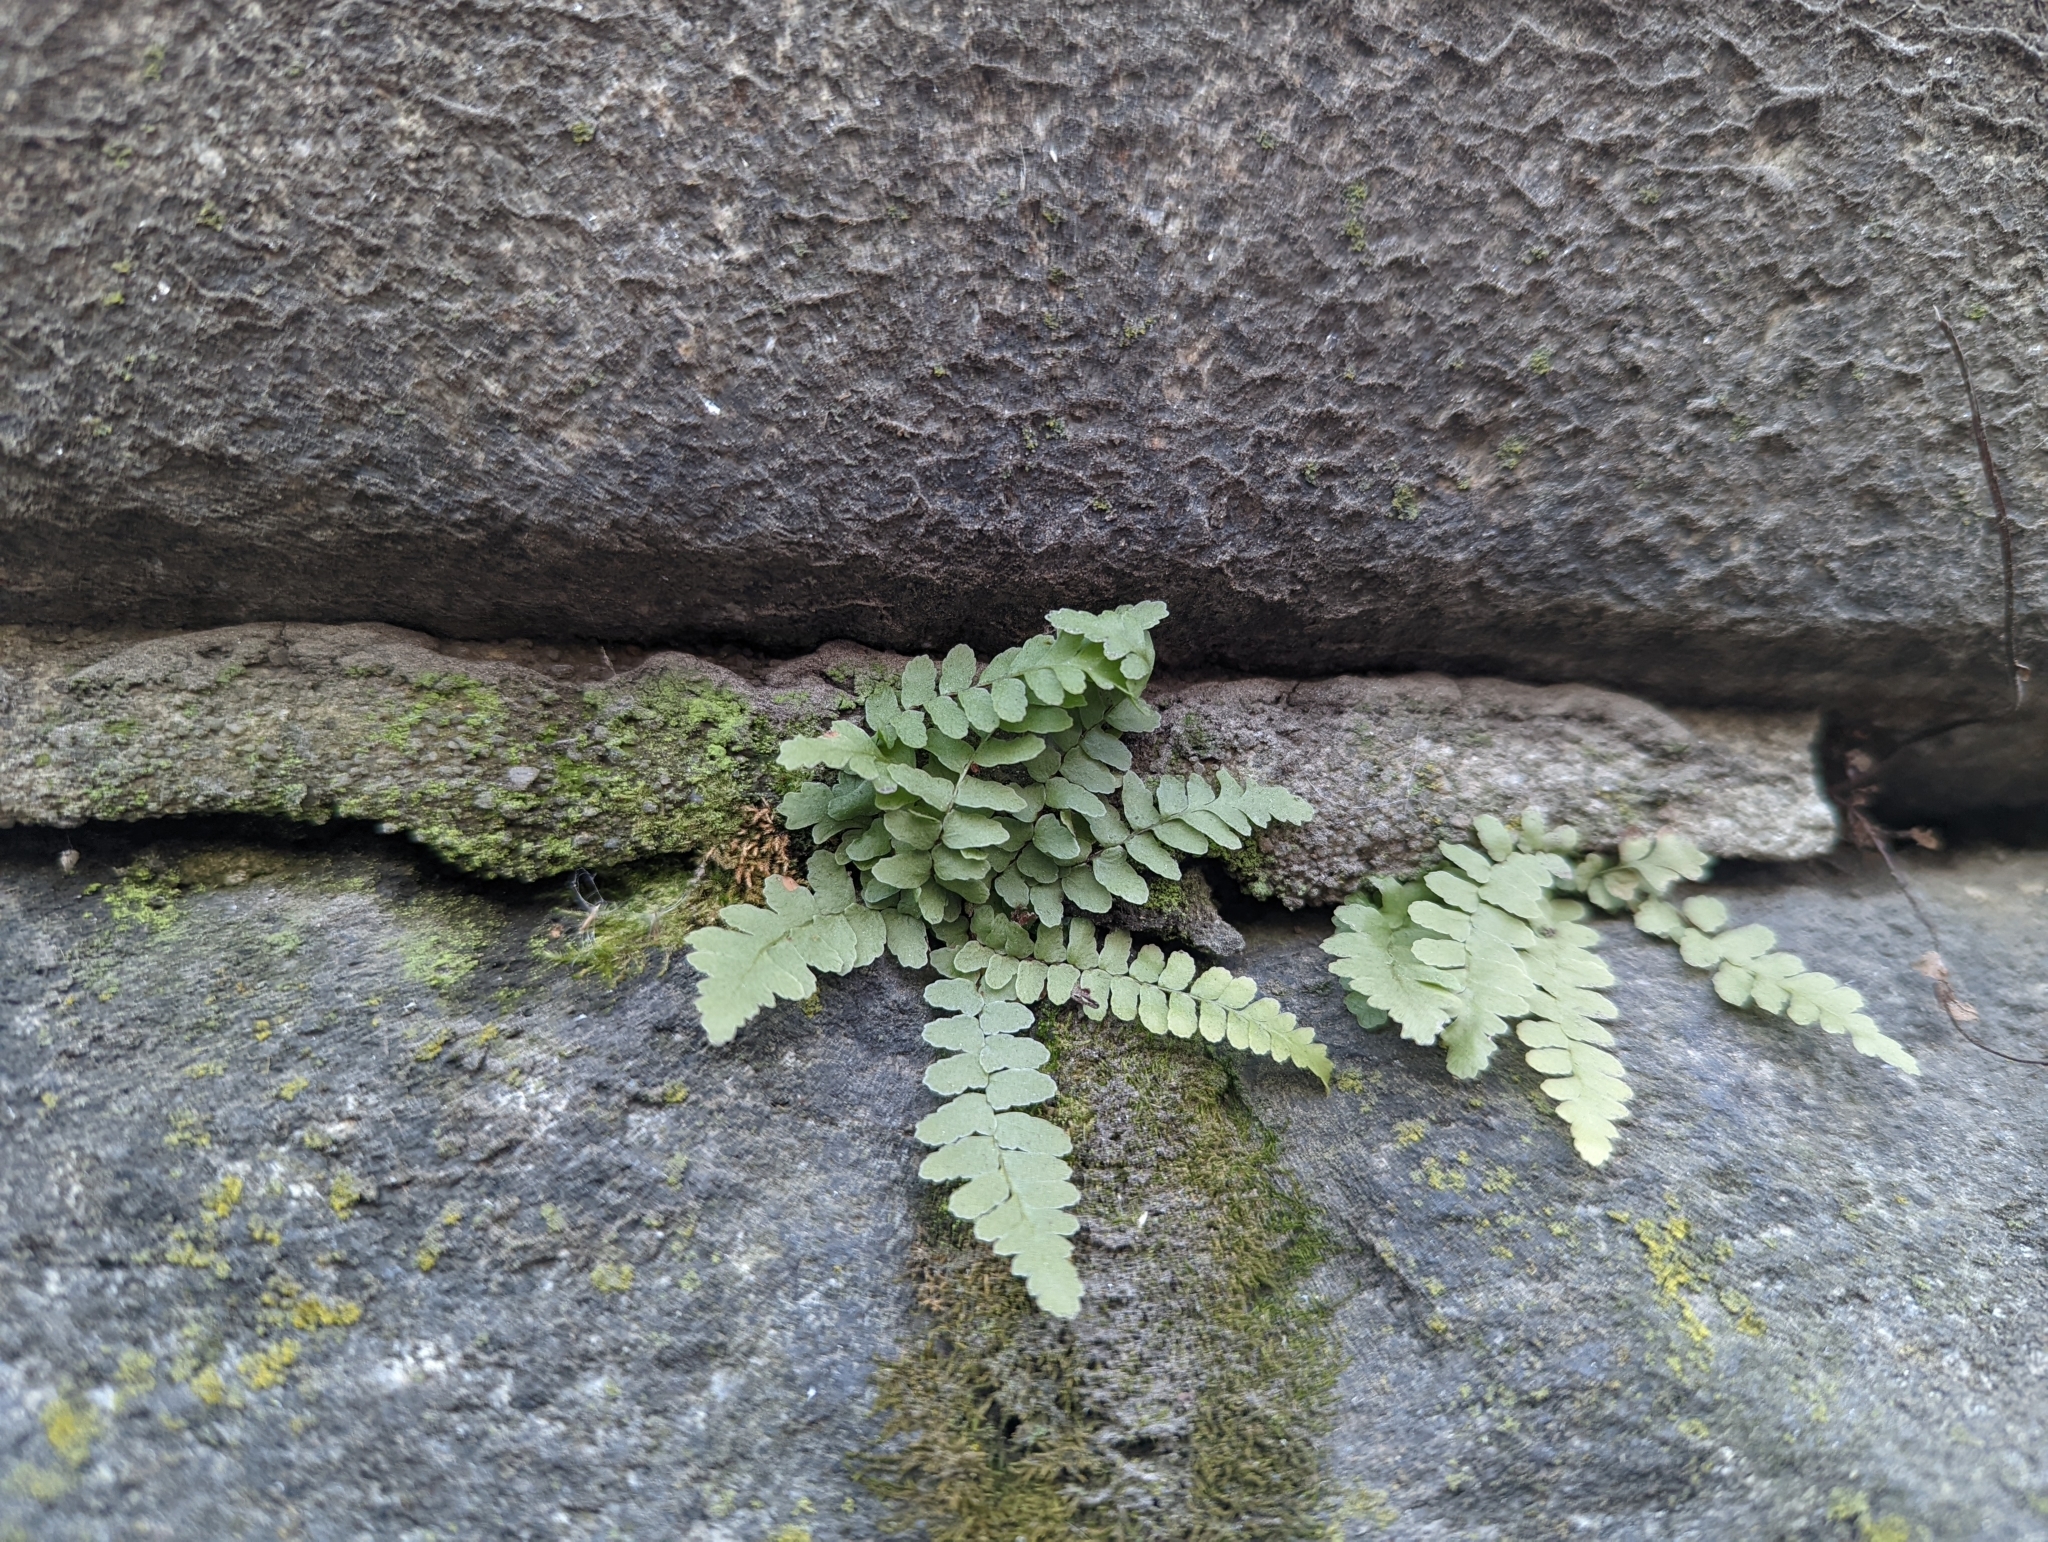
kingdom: Plantae
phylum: Tracheophyta
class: Polypodiopsida
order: Polypodiales
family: Aspleniaceae
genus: Asplenium
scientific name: Asplenium platyneuron
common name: Ebony spleenwort
